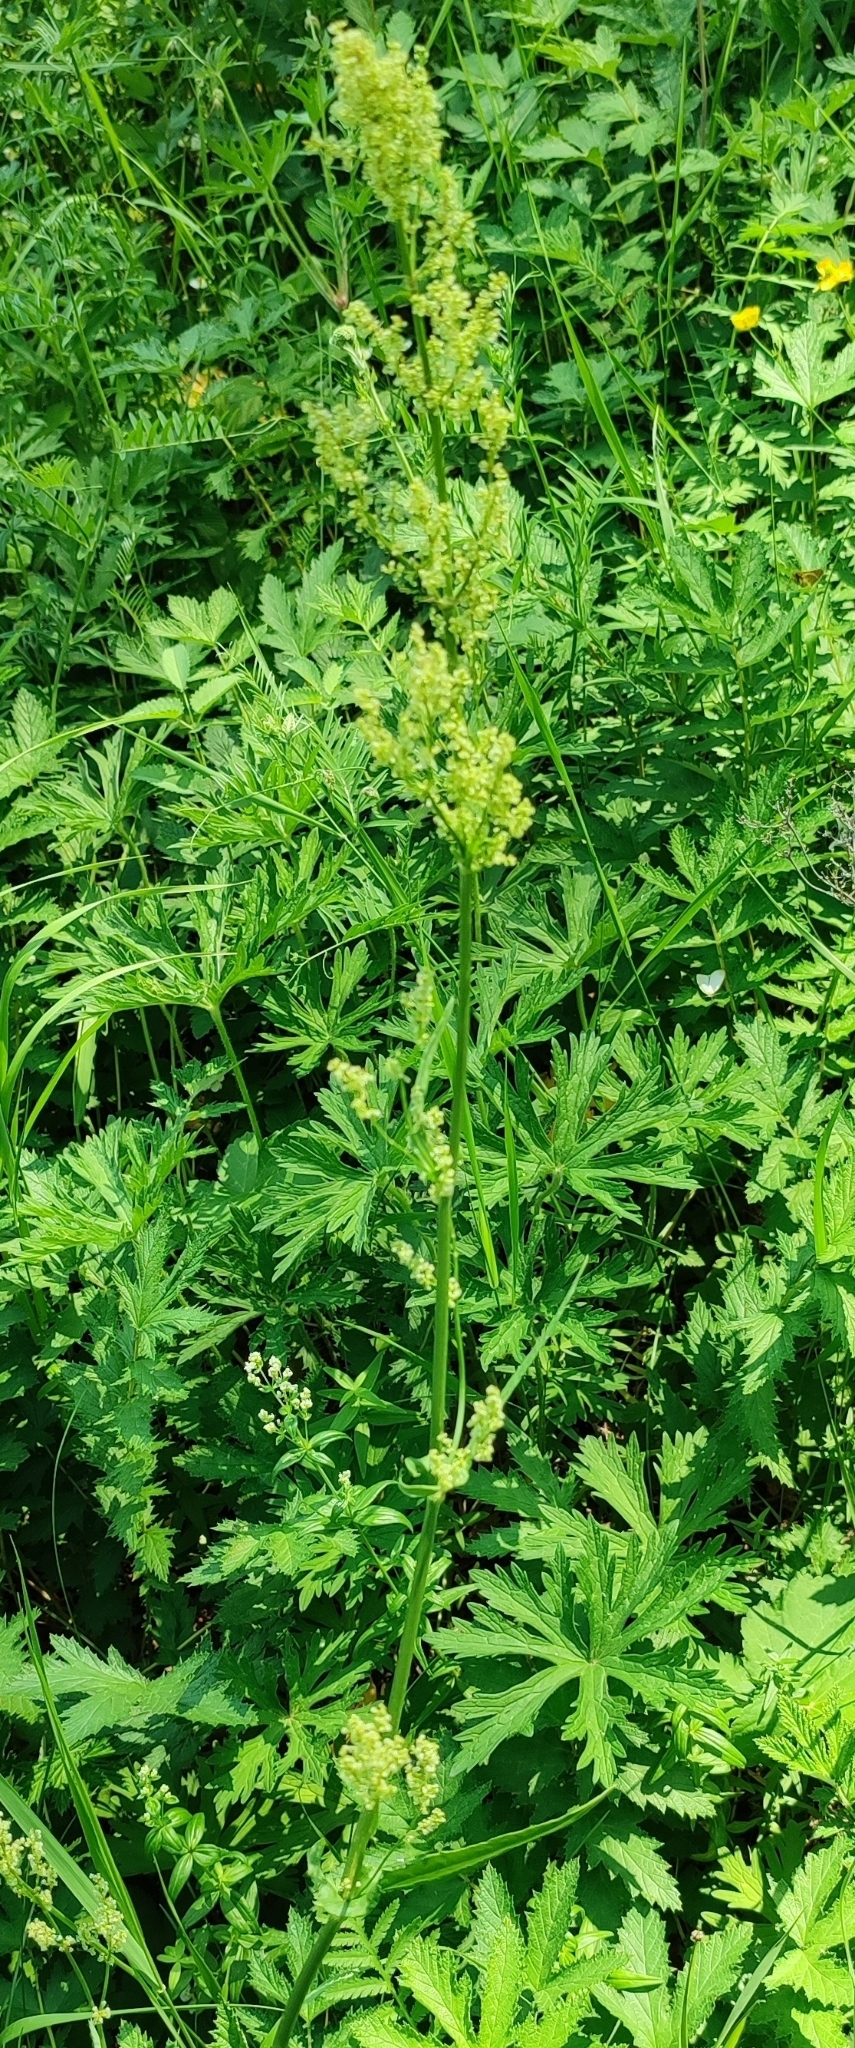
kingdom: Plantae
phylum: Tracheophyta
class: Magnoliopsida
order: Caryophyllales
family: Polygonaceae
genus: Rumex
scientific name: Rumex thyrsiflorus
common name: Garden sorrel
